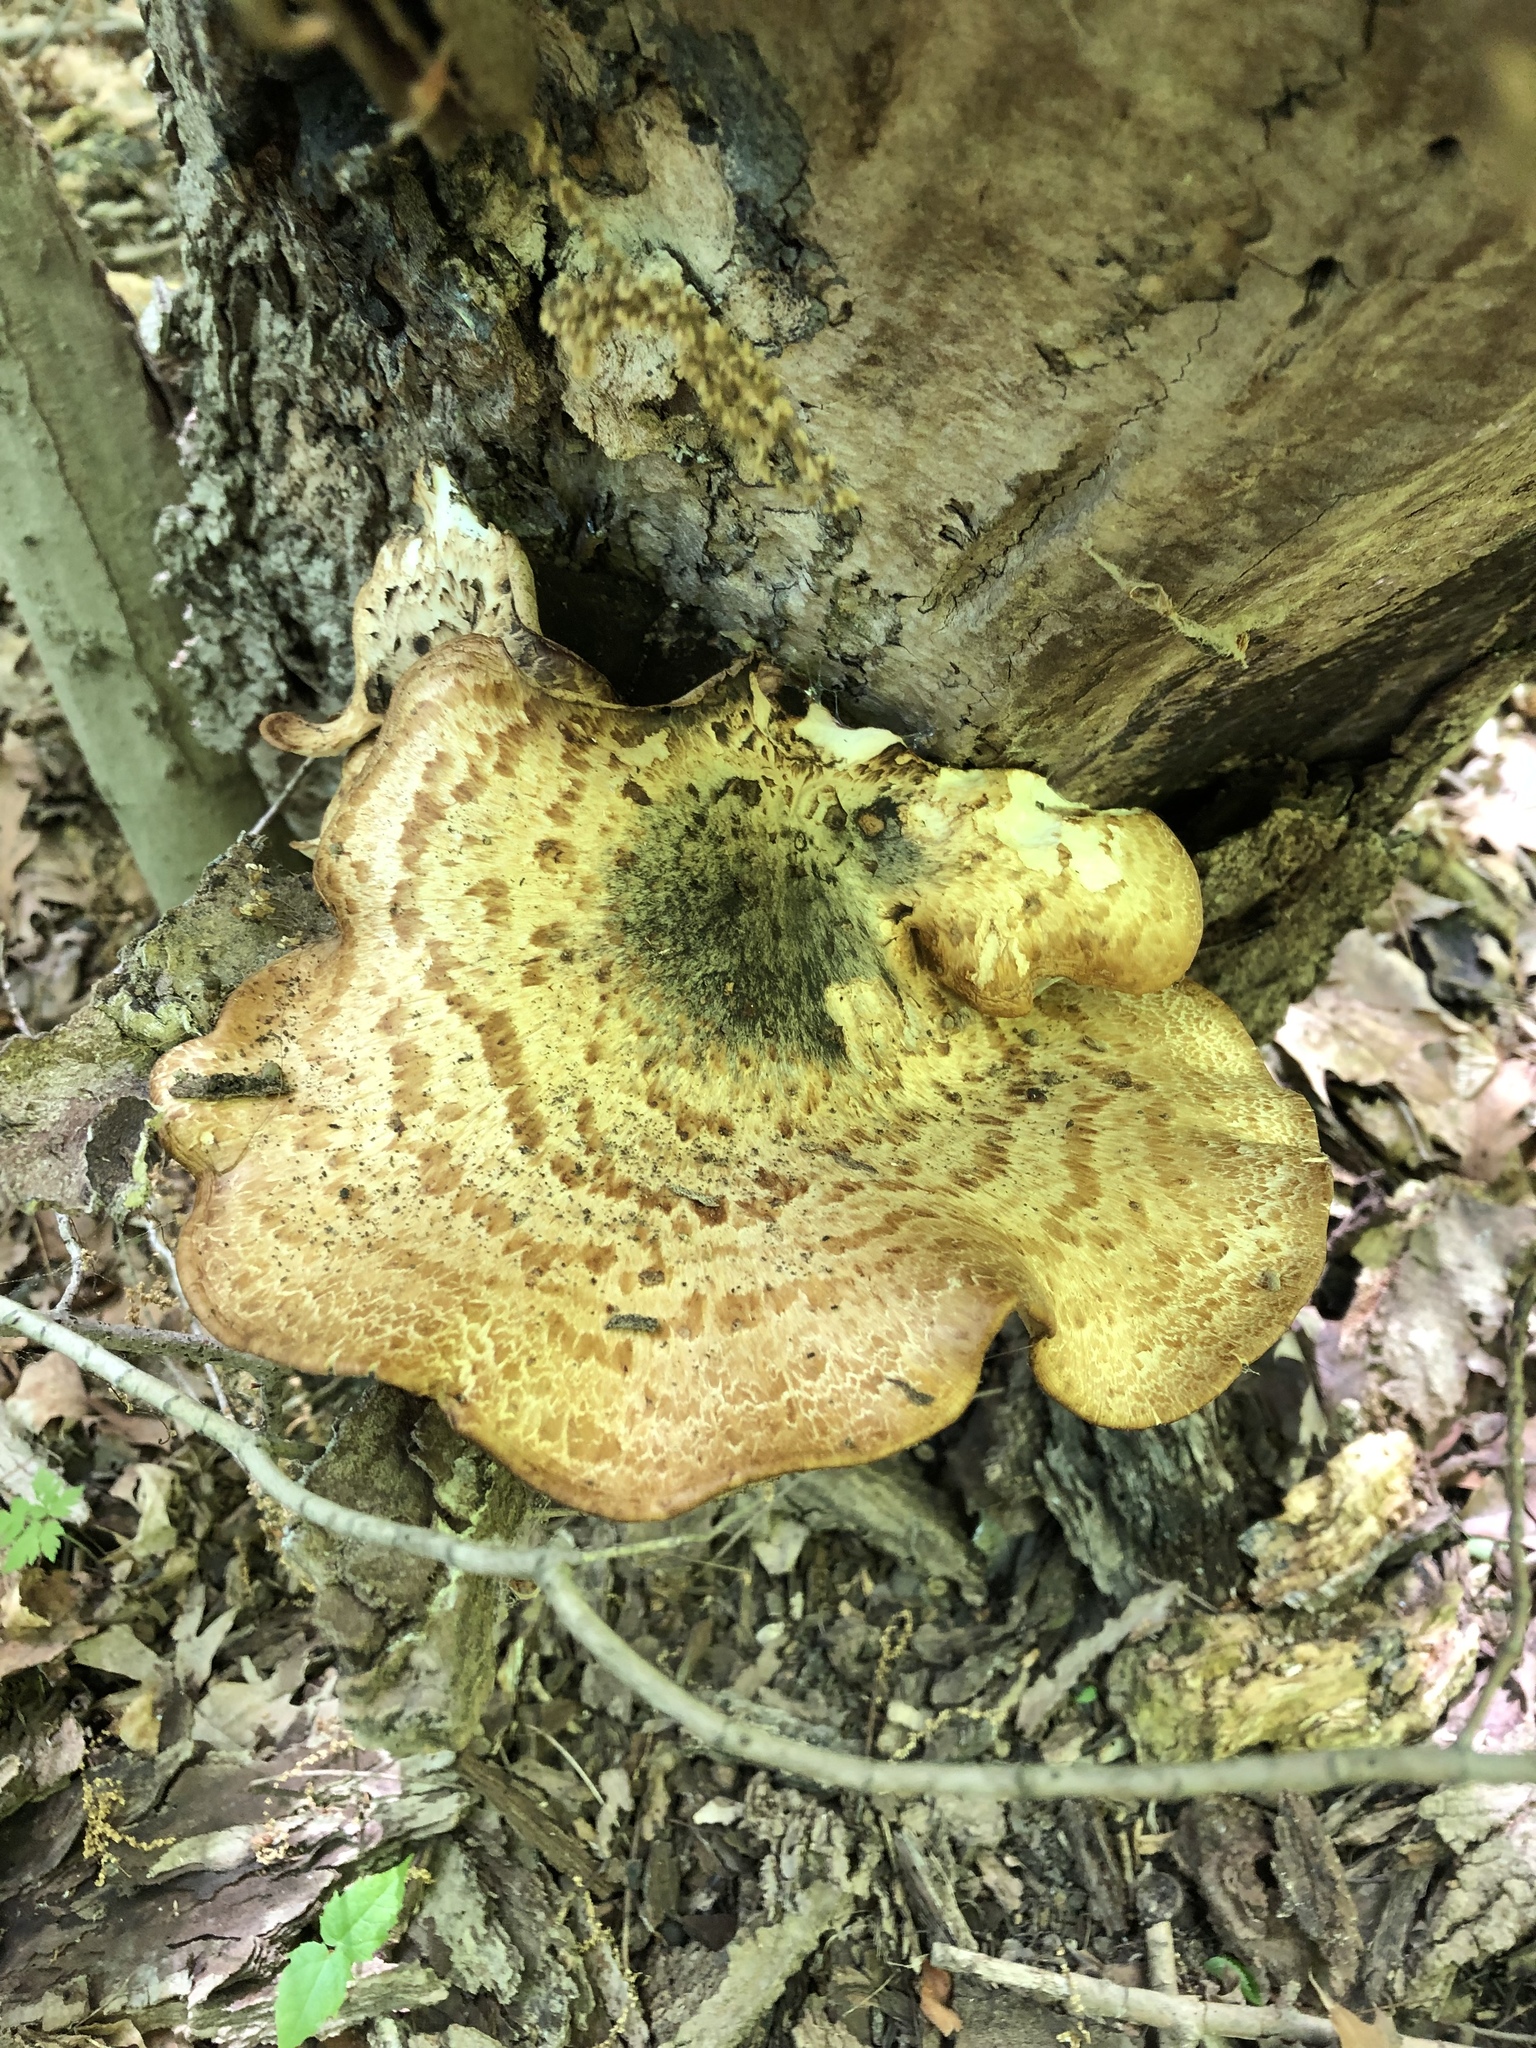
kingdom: Fungi
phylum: Basidiomycota
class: Agaricomycetes
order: Polyporales
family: Polyporaceae
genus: Cerioporus
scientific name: Cerioporus squamosus
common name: Dryad's saddle
